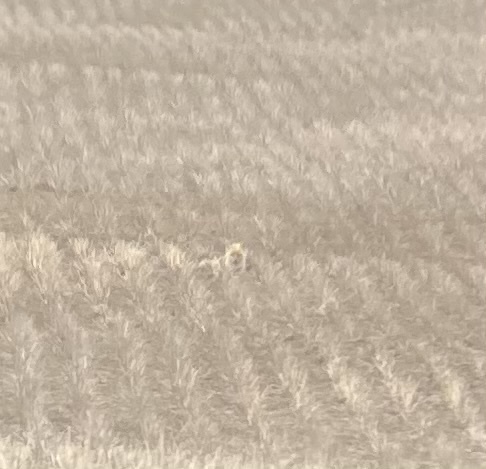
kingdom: Animalia
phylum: Chordata
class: Mammalia
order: Carnivora
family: Canidae
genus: Vulpes
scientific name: Vulpes velox
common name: Swift fox
